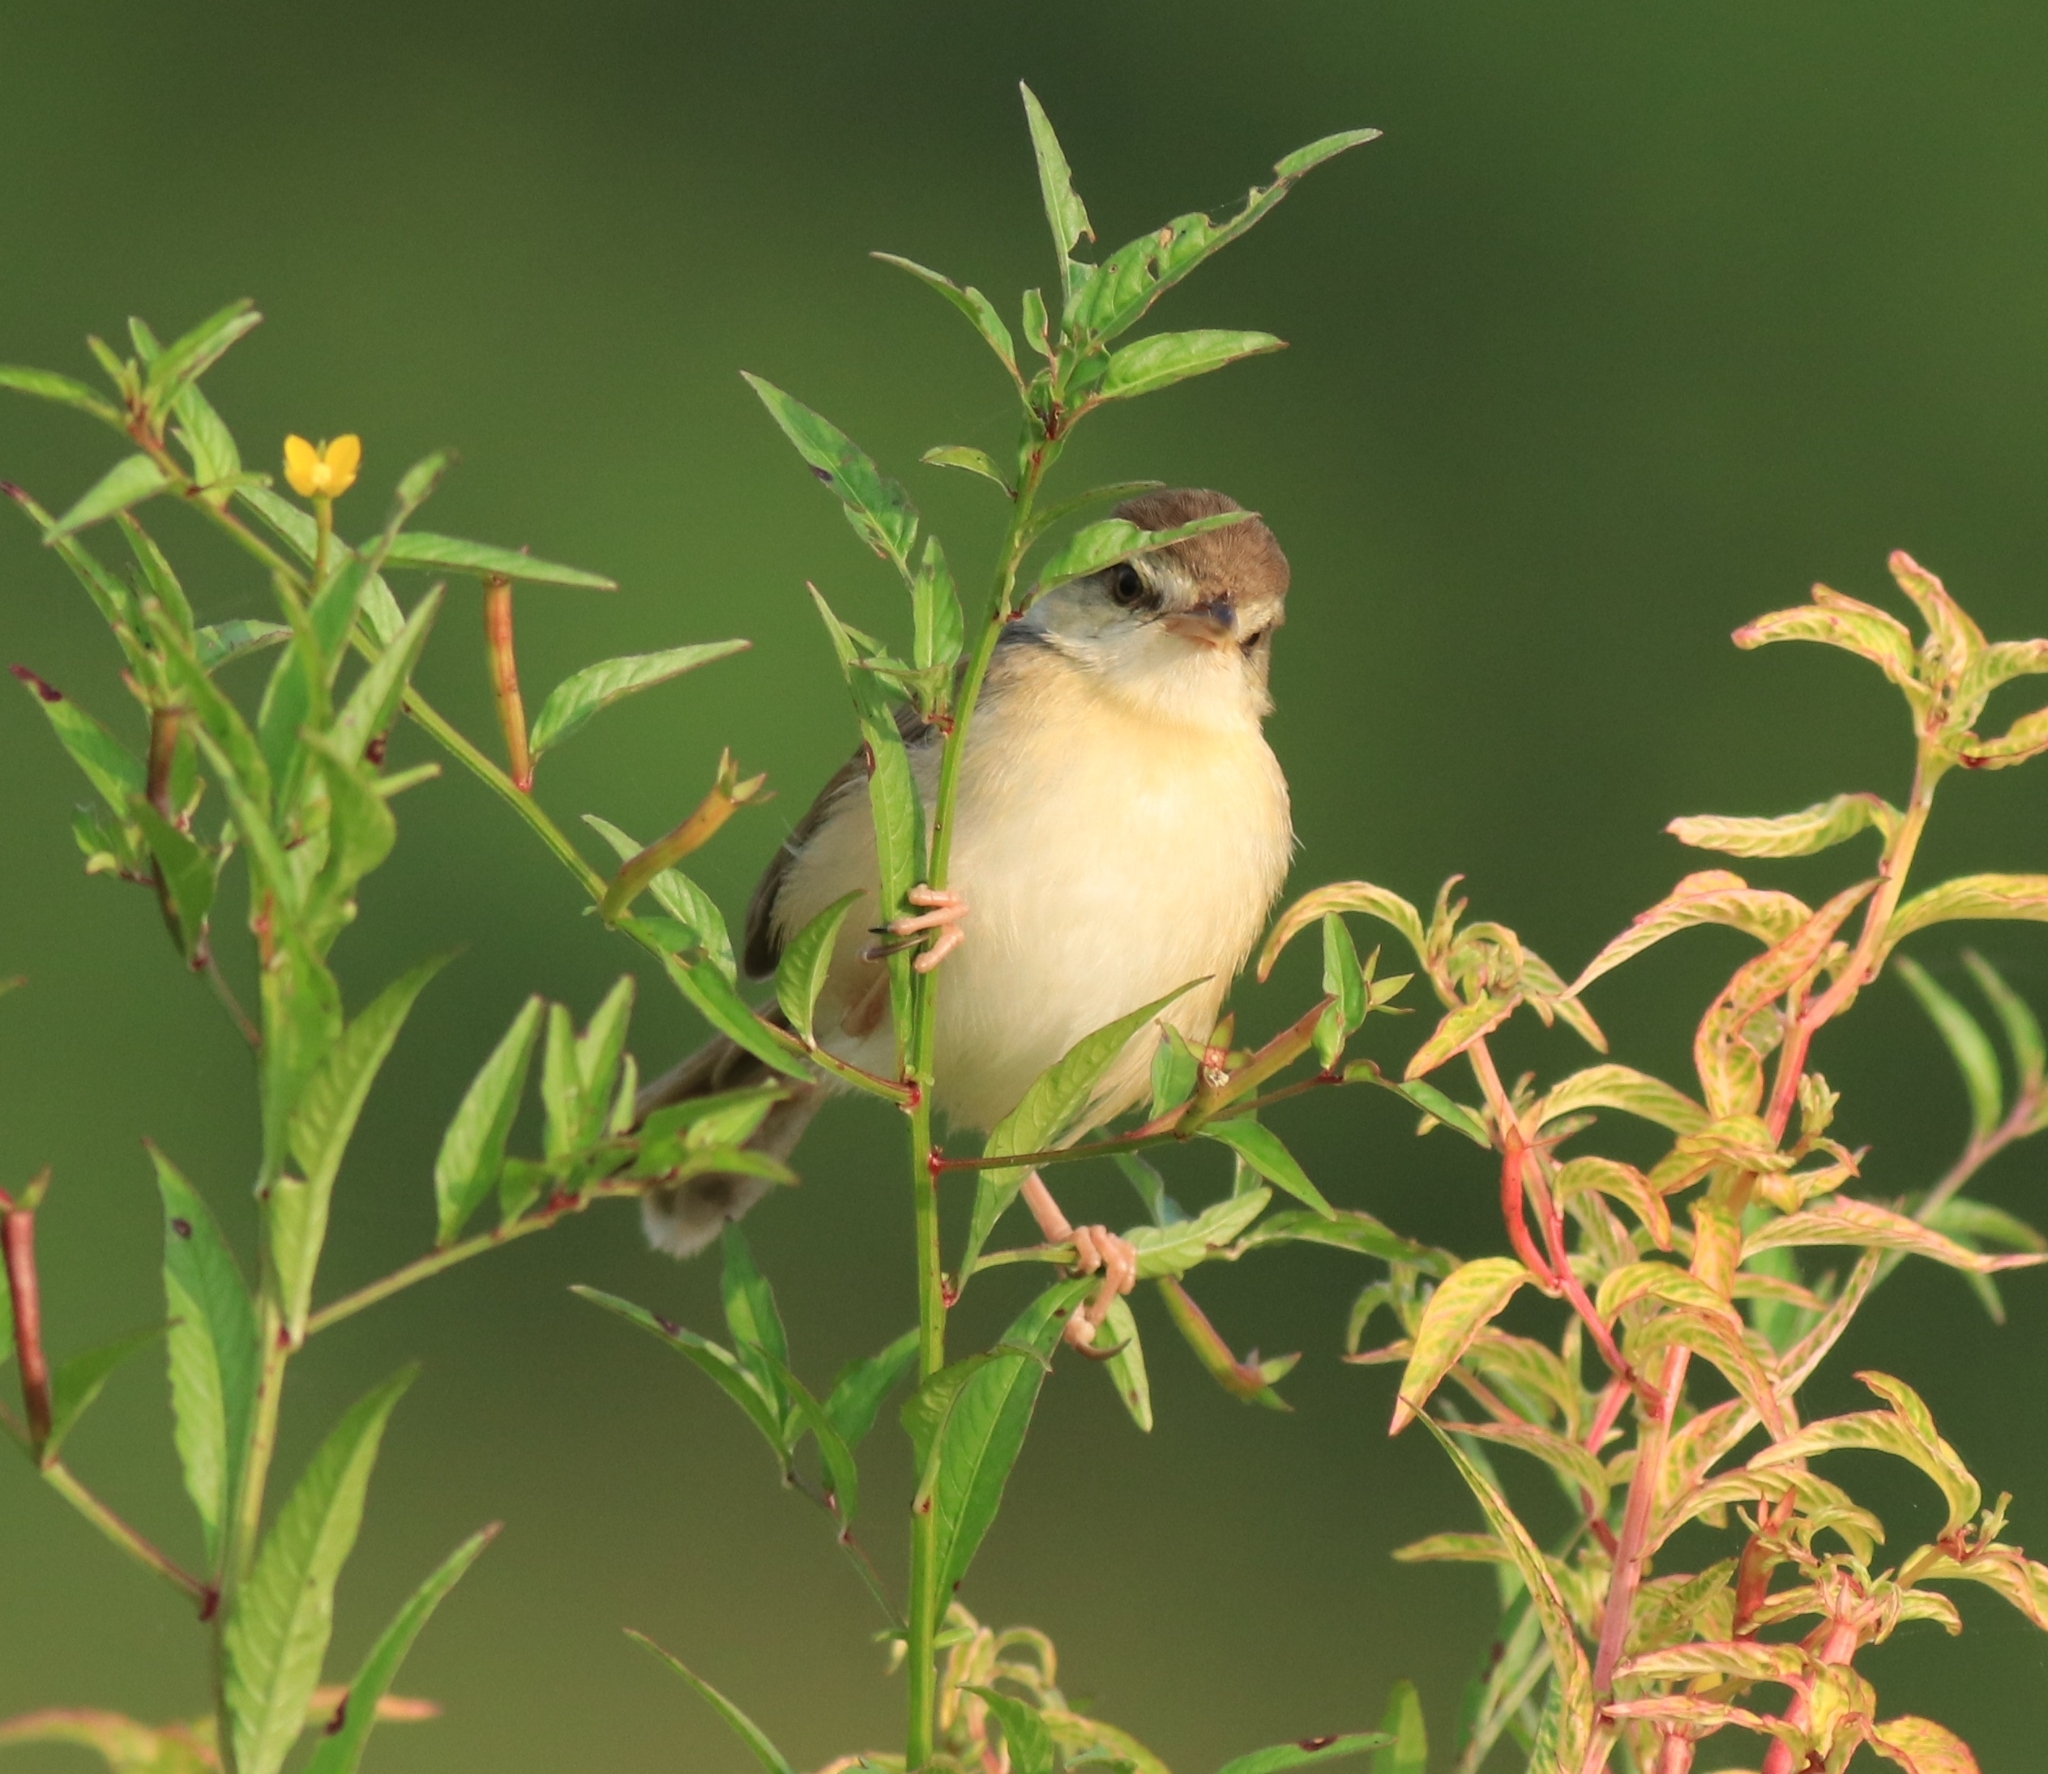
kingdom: Animalia
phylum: Chordata
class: Aves
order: Passeriformes
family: Cisticolidae
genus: Prinia
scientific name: Prinia inornata
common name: Plain prinia
